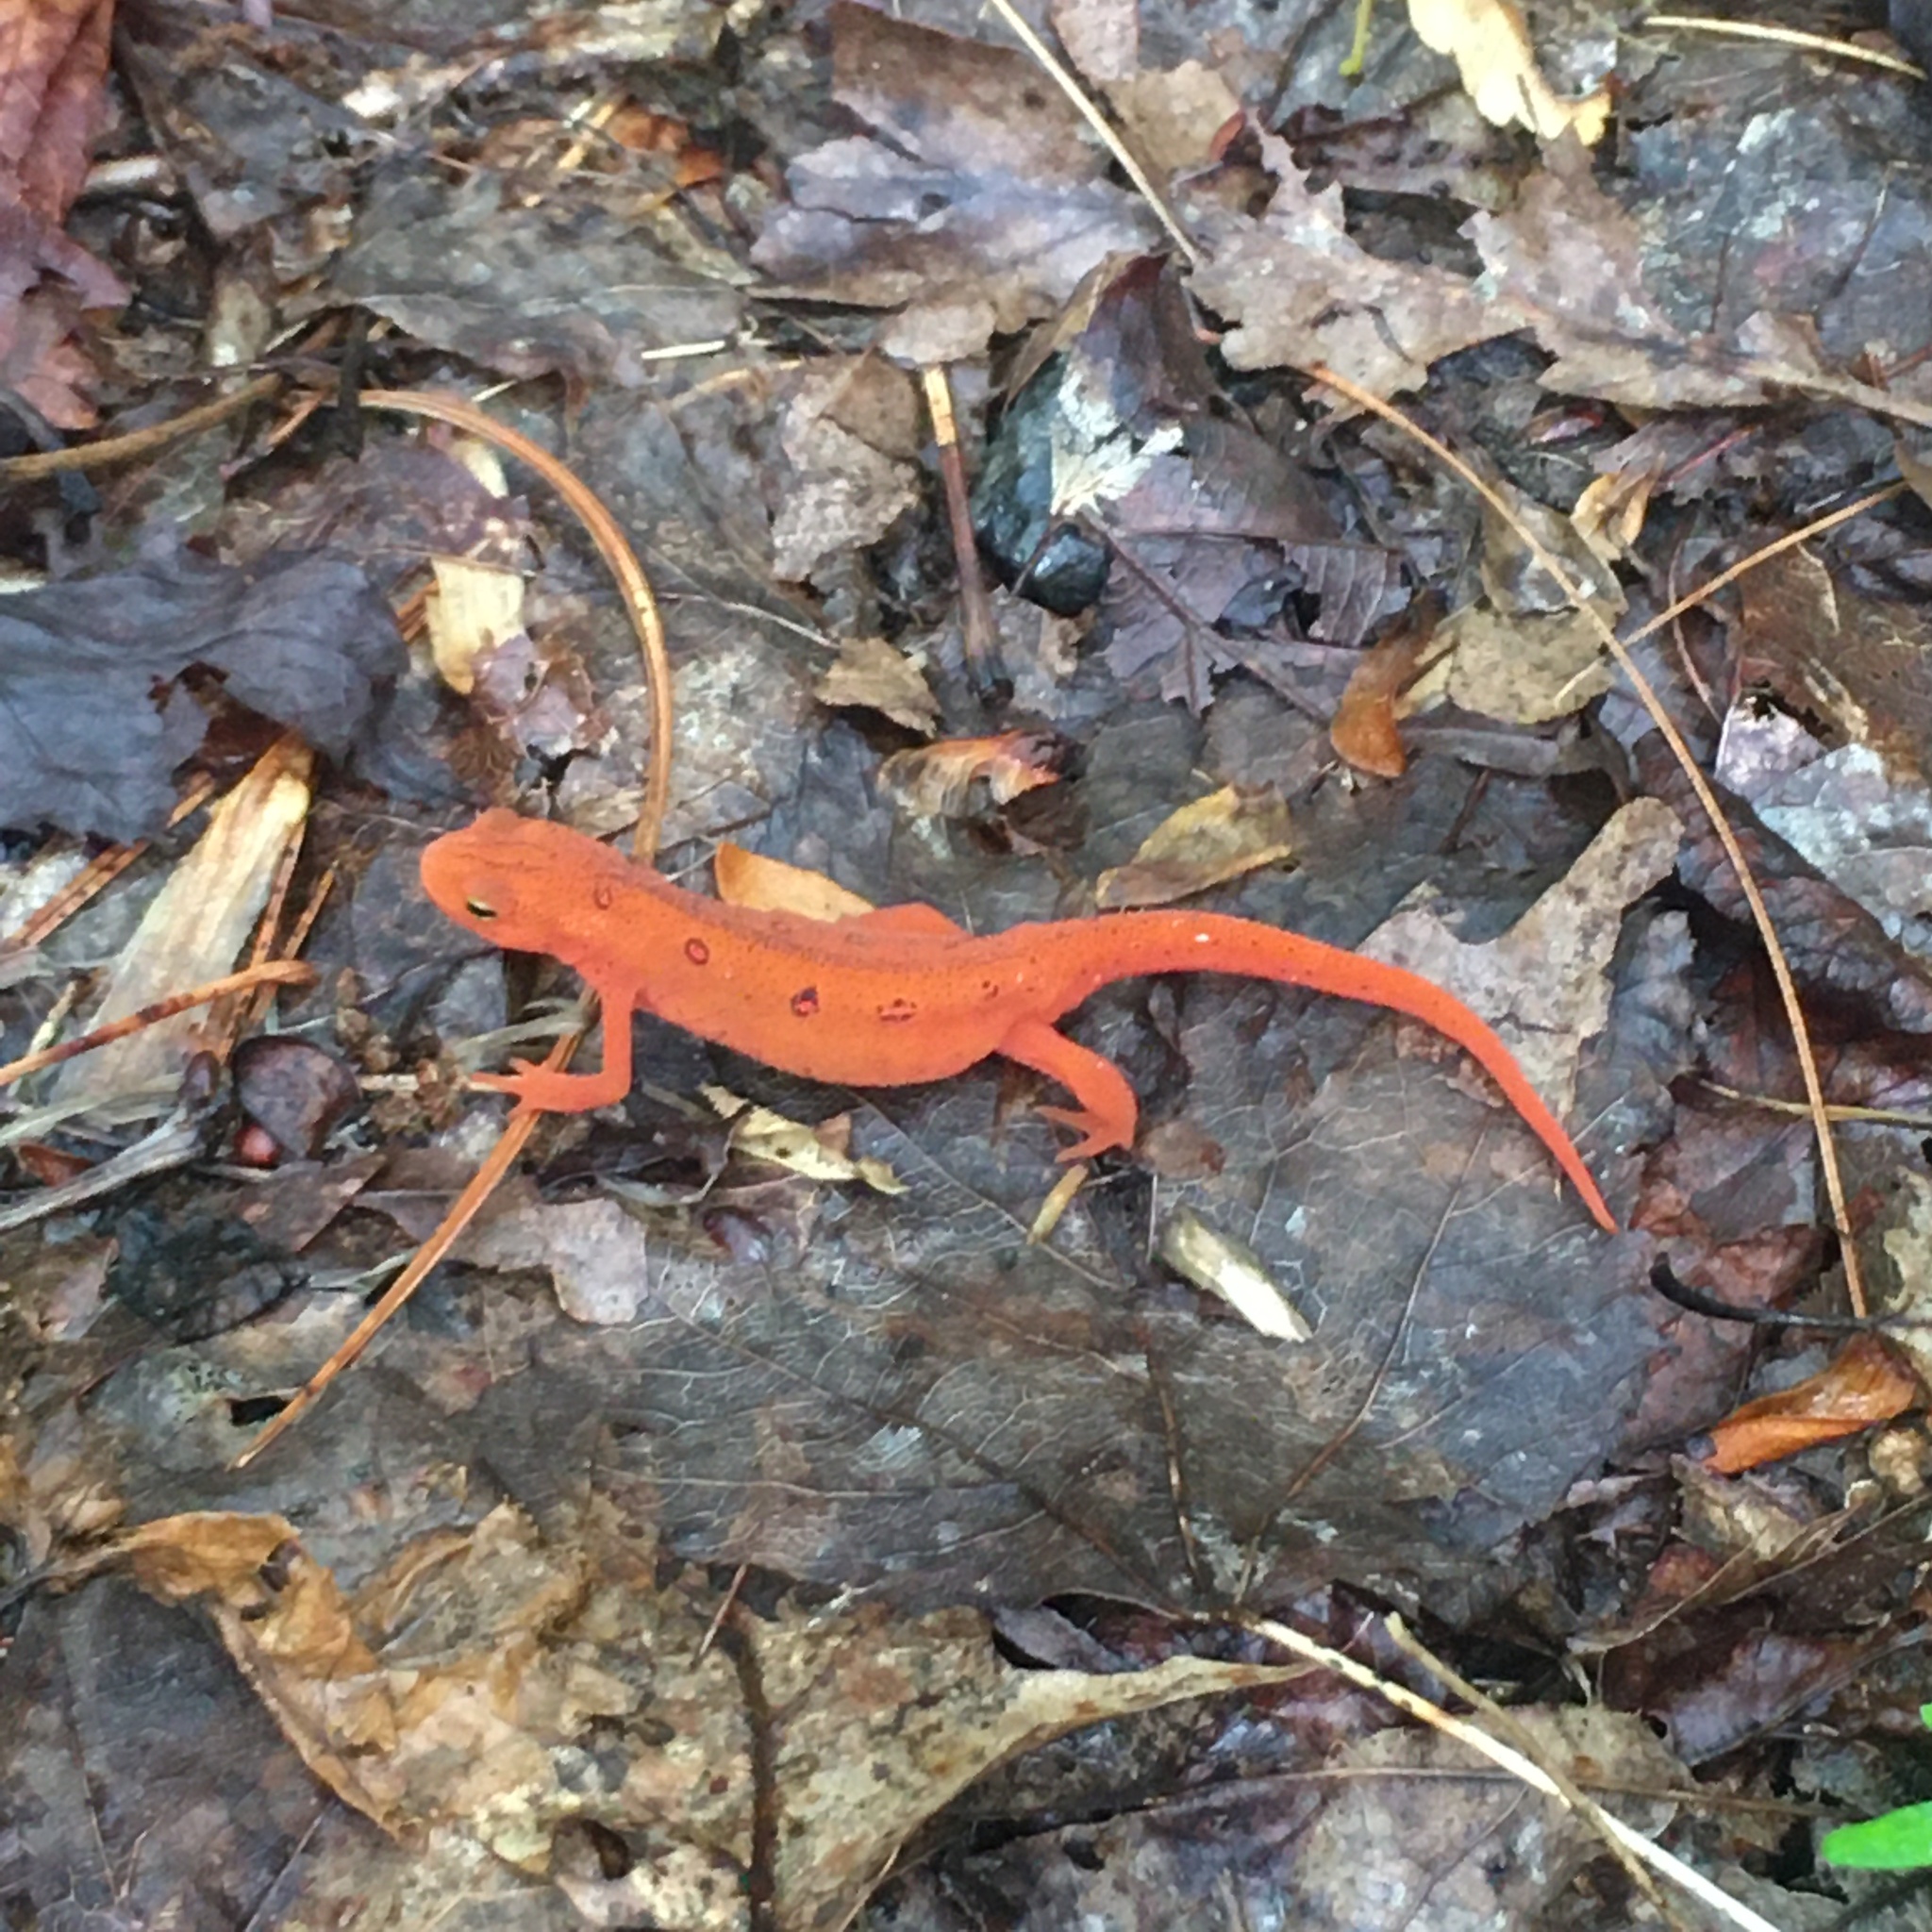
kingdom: Animalia
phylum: Chordata
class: Amphibia
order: Caudata
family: Salamandridae
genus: Notophthalmus
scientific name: Notophthalmus viridescens
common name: Eastern newt
